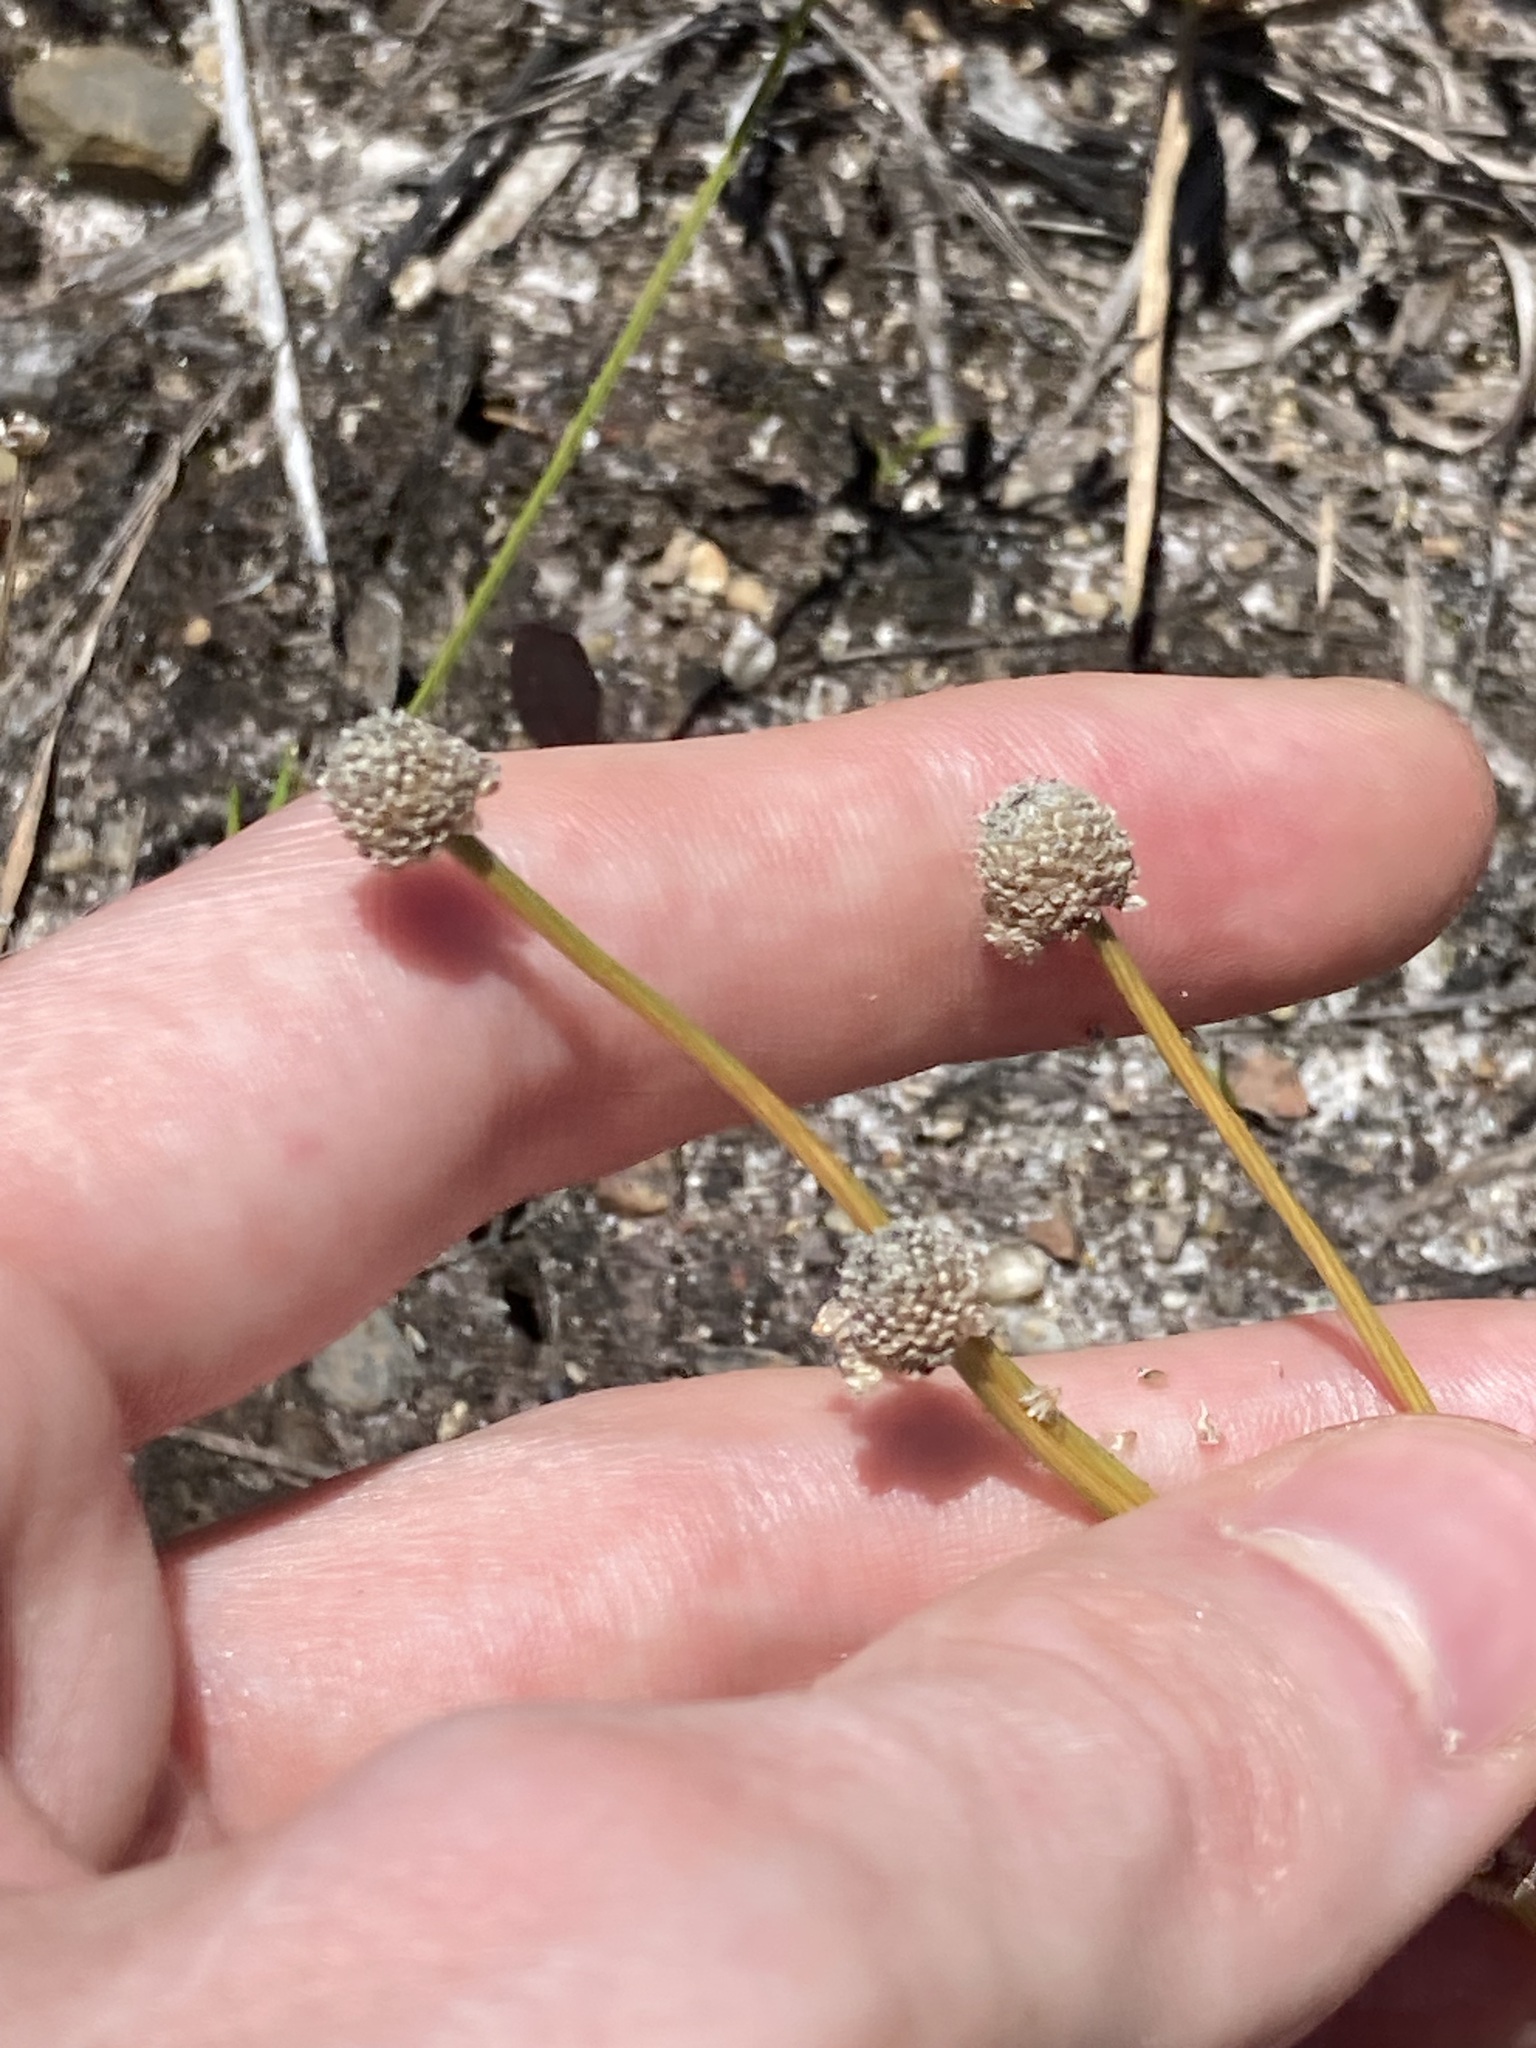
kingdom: Plantae
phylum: Tracheophyta
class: Liliopsida
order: Poales
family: Eriocaulaceae
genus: Eriocaulon
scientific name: Eriocaulon scariosum
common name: Rough pipewort
